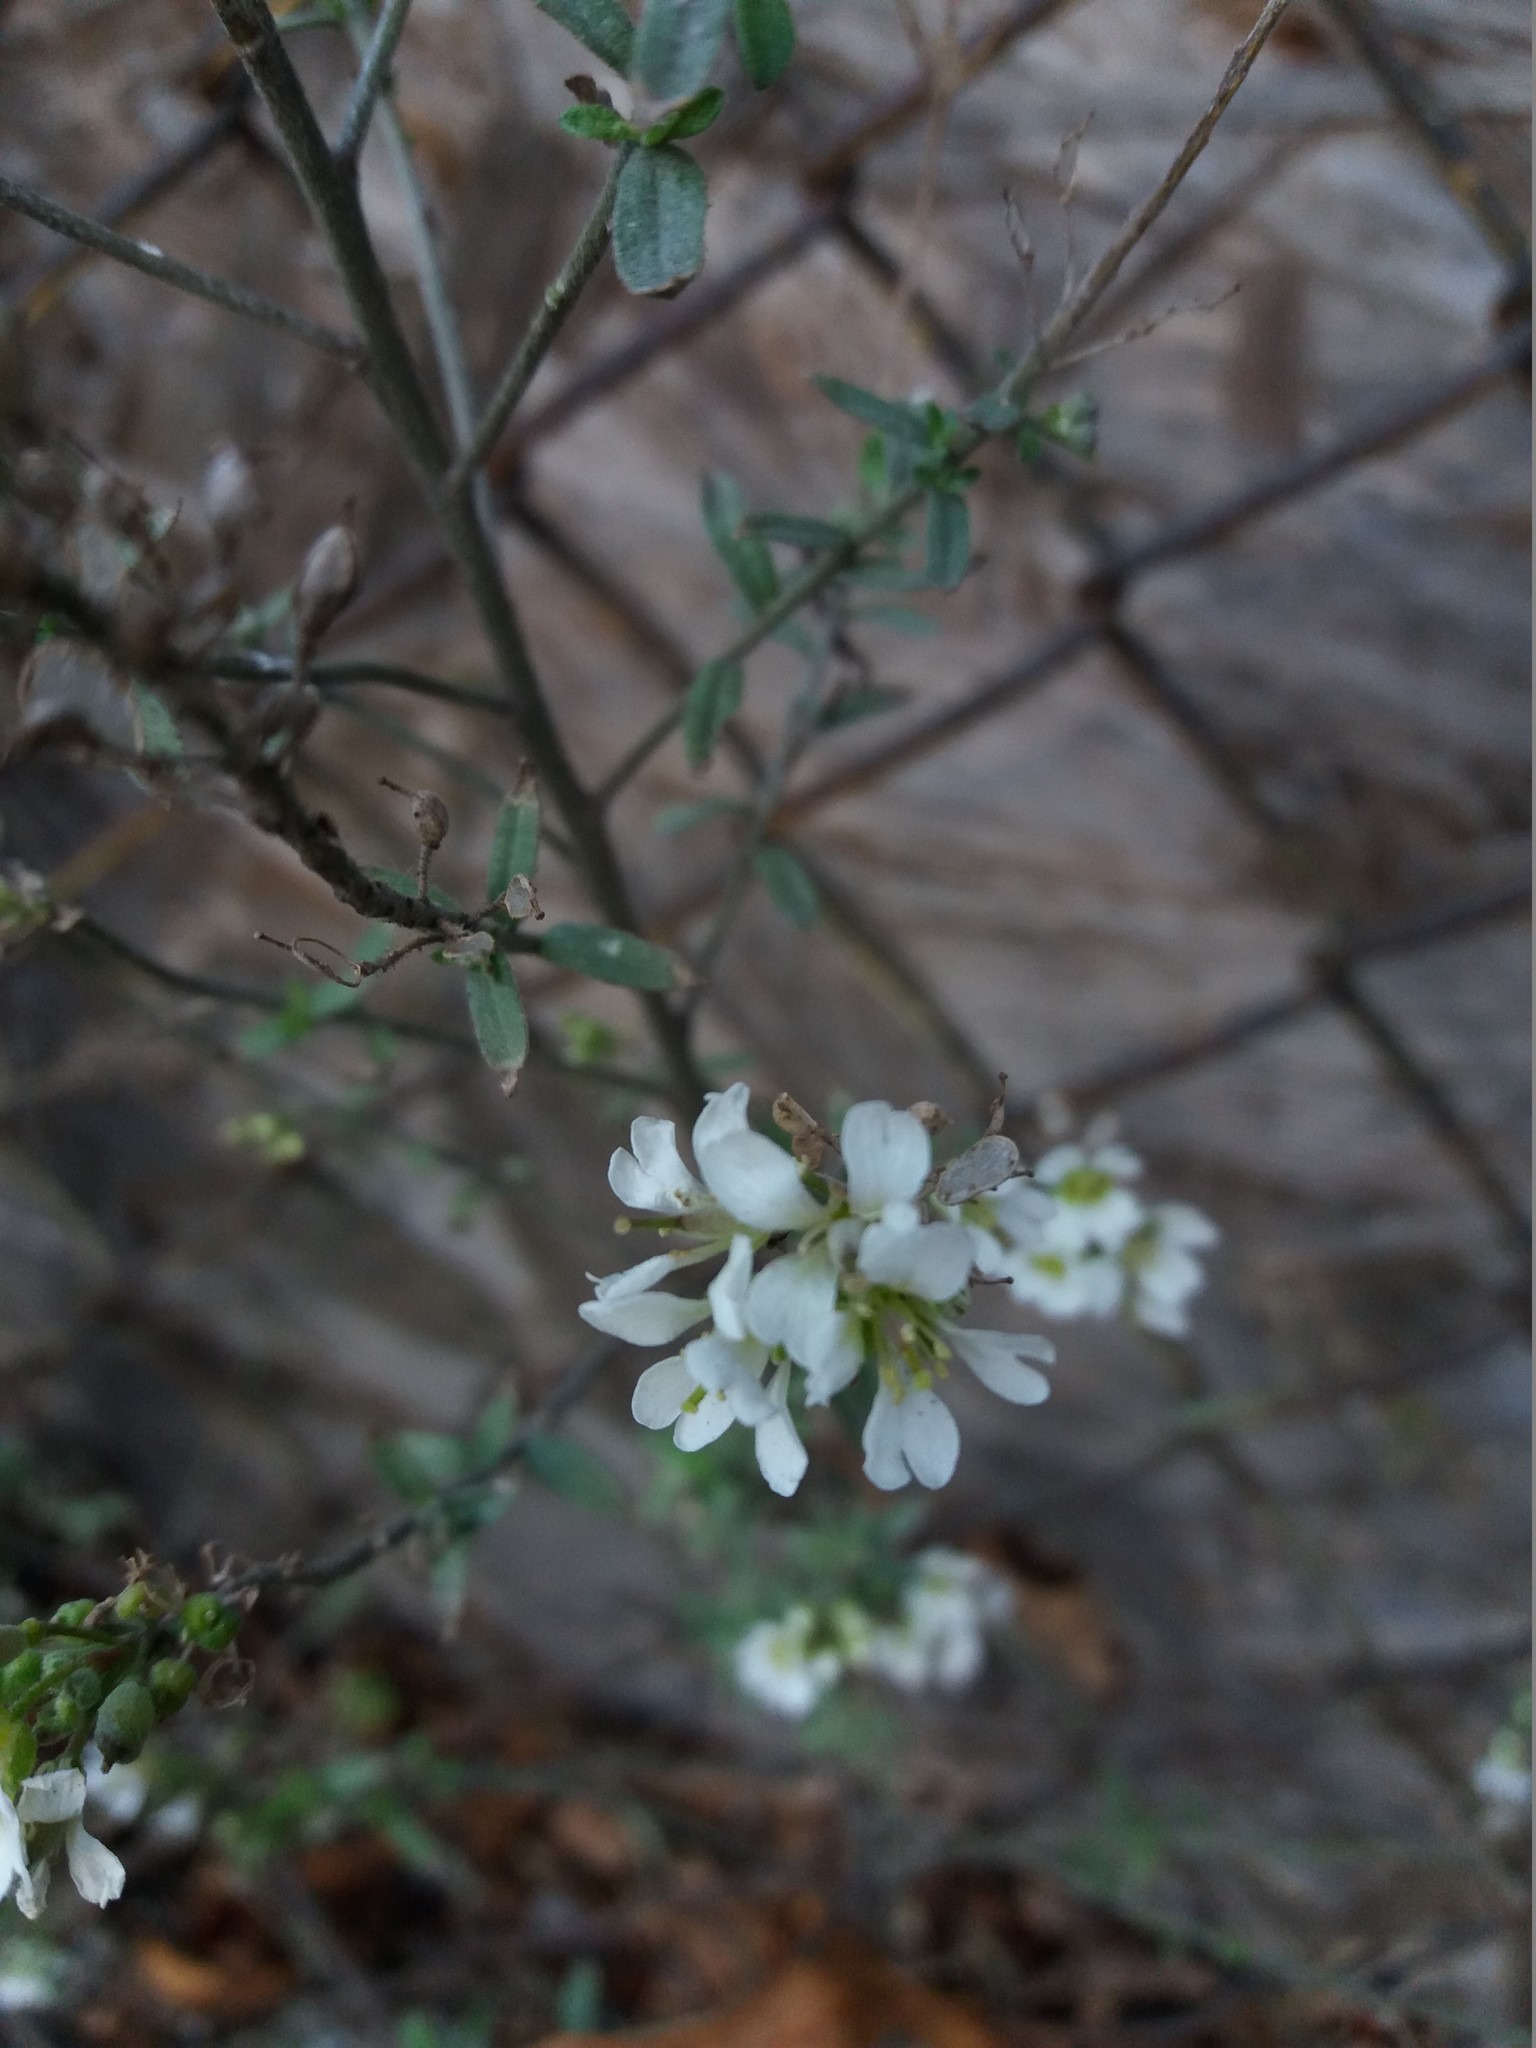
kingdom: Plantae
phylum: Tracheophyta
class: Magnoliopsida
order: Brassicales
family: Brassicaceae
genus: Berteroa
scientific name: Berteroa incana
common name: Hoary alison
